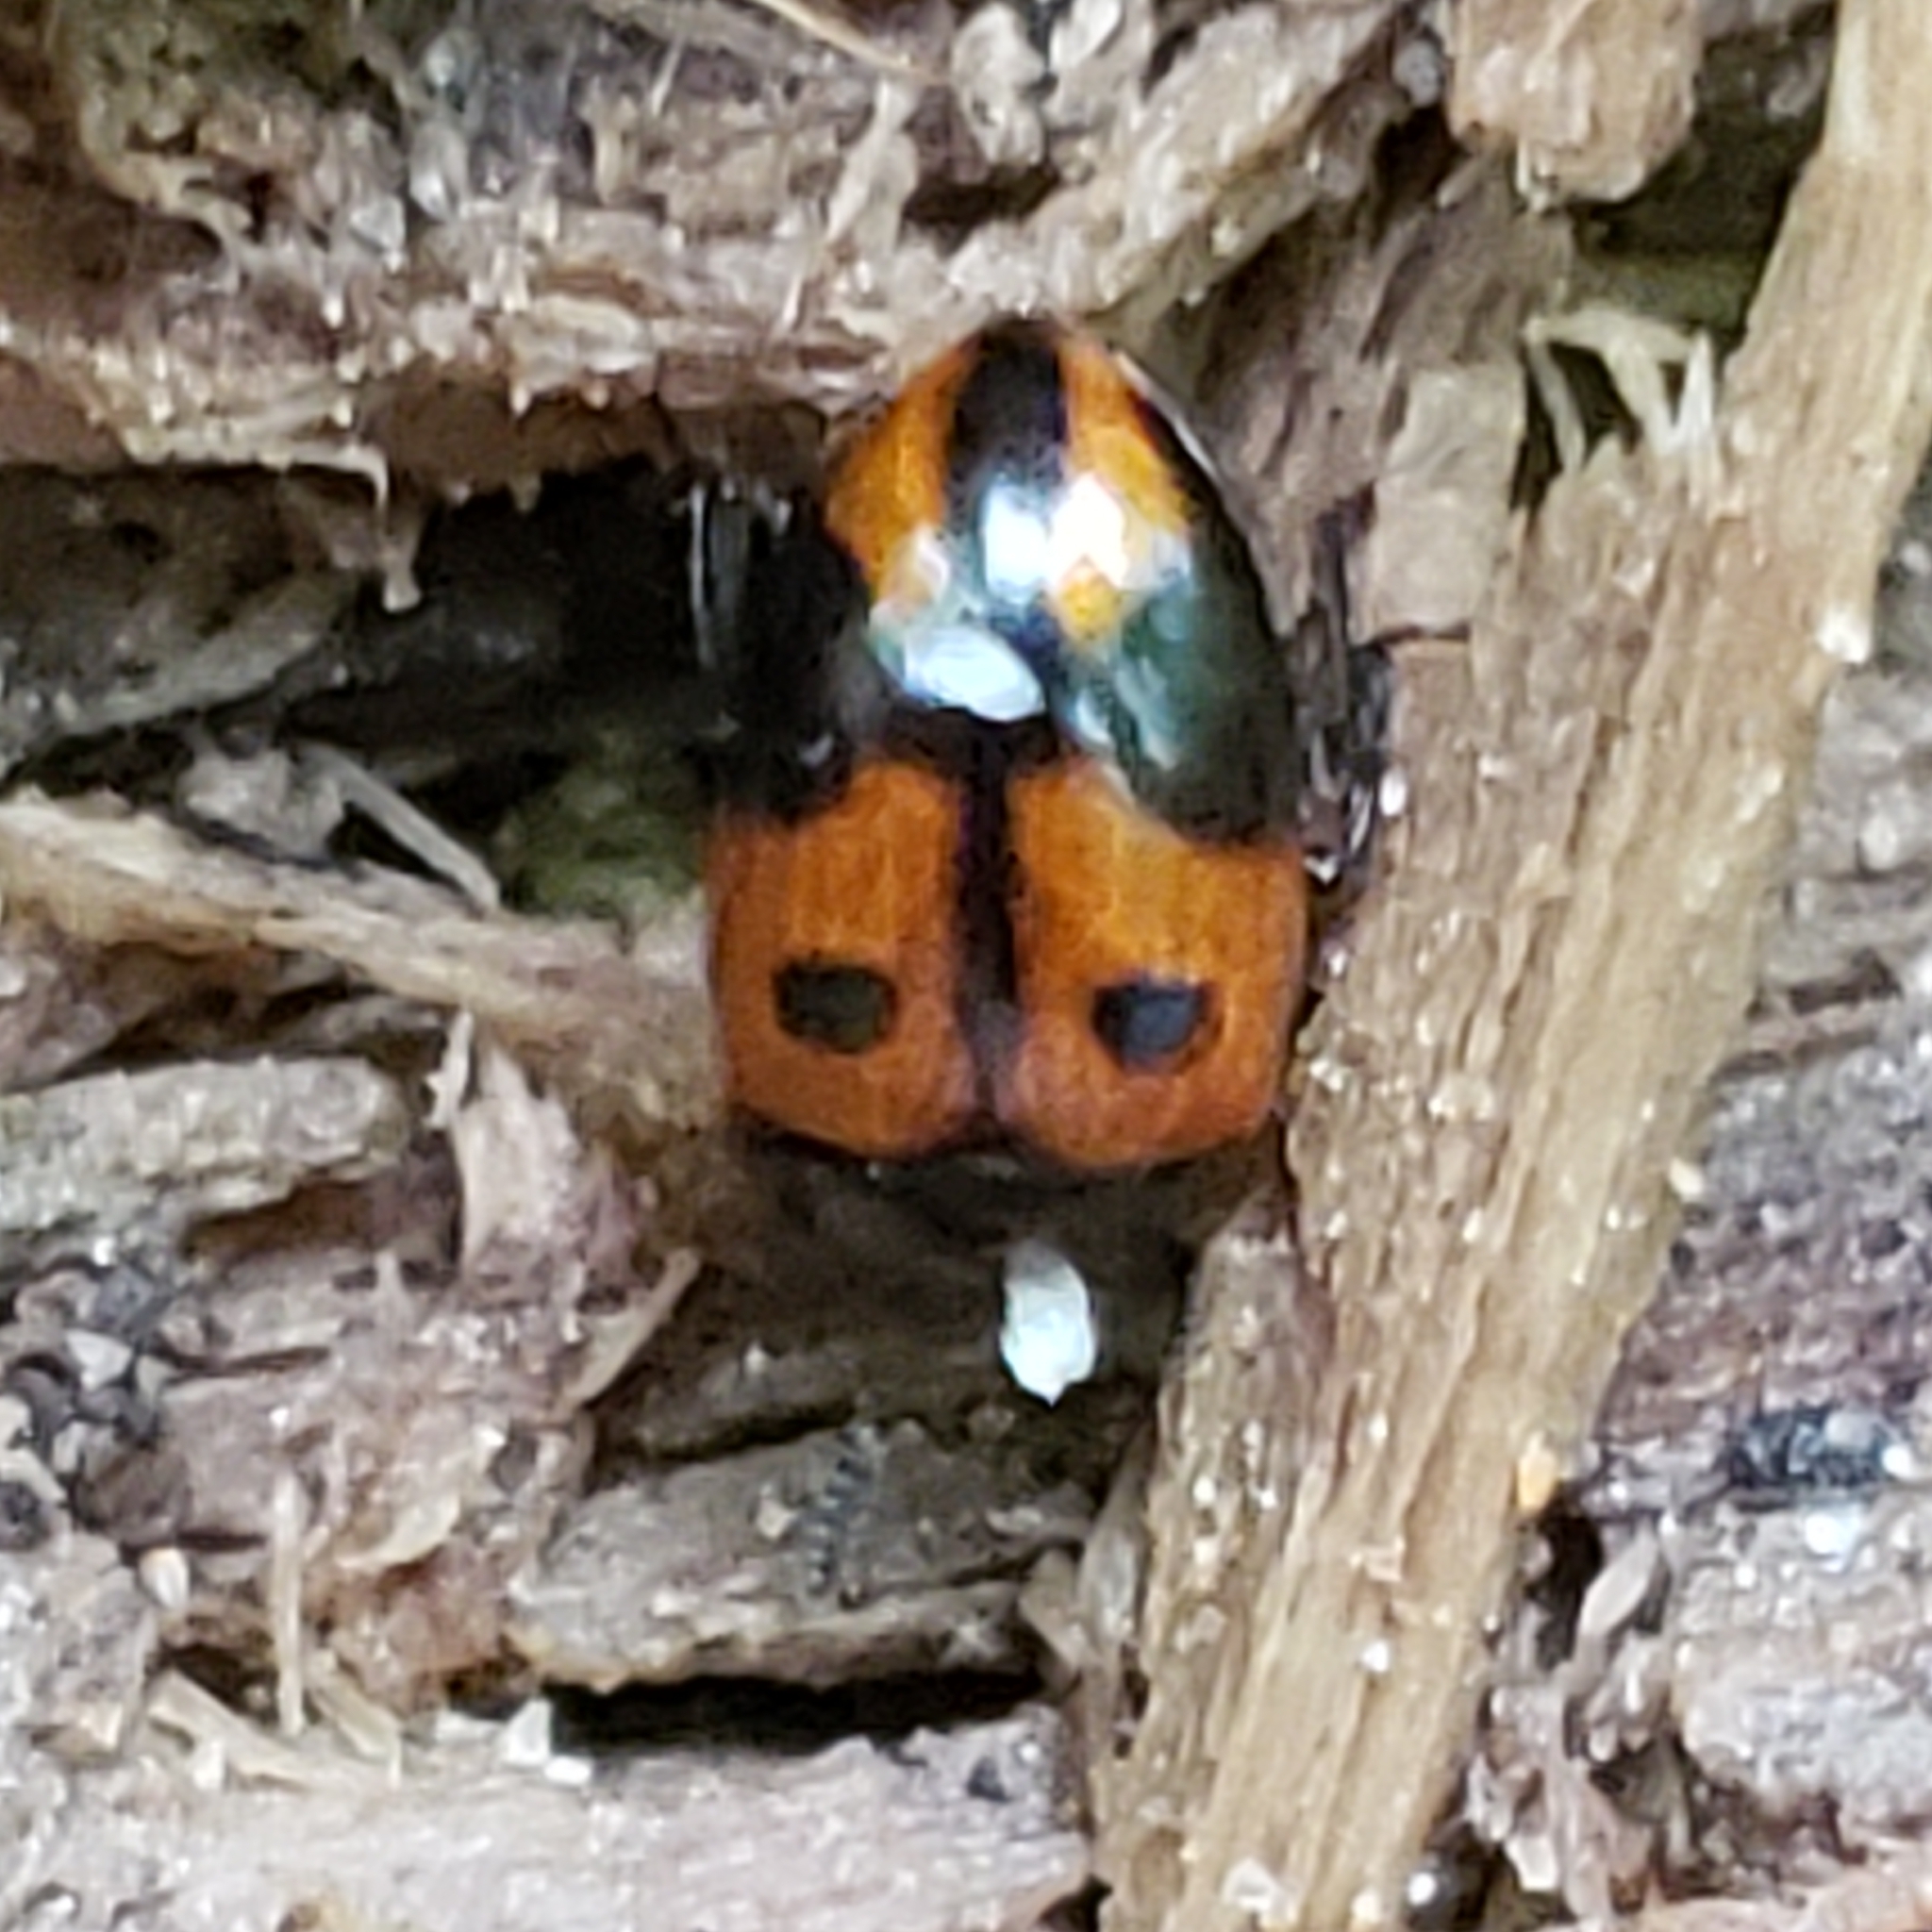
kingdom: Animalia
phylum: Arthropoda
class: Insecta
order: Coleoptera
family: Tenebrionidae
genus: Diaperis
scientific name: Diaperis maculata
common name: Darkling beetle
